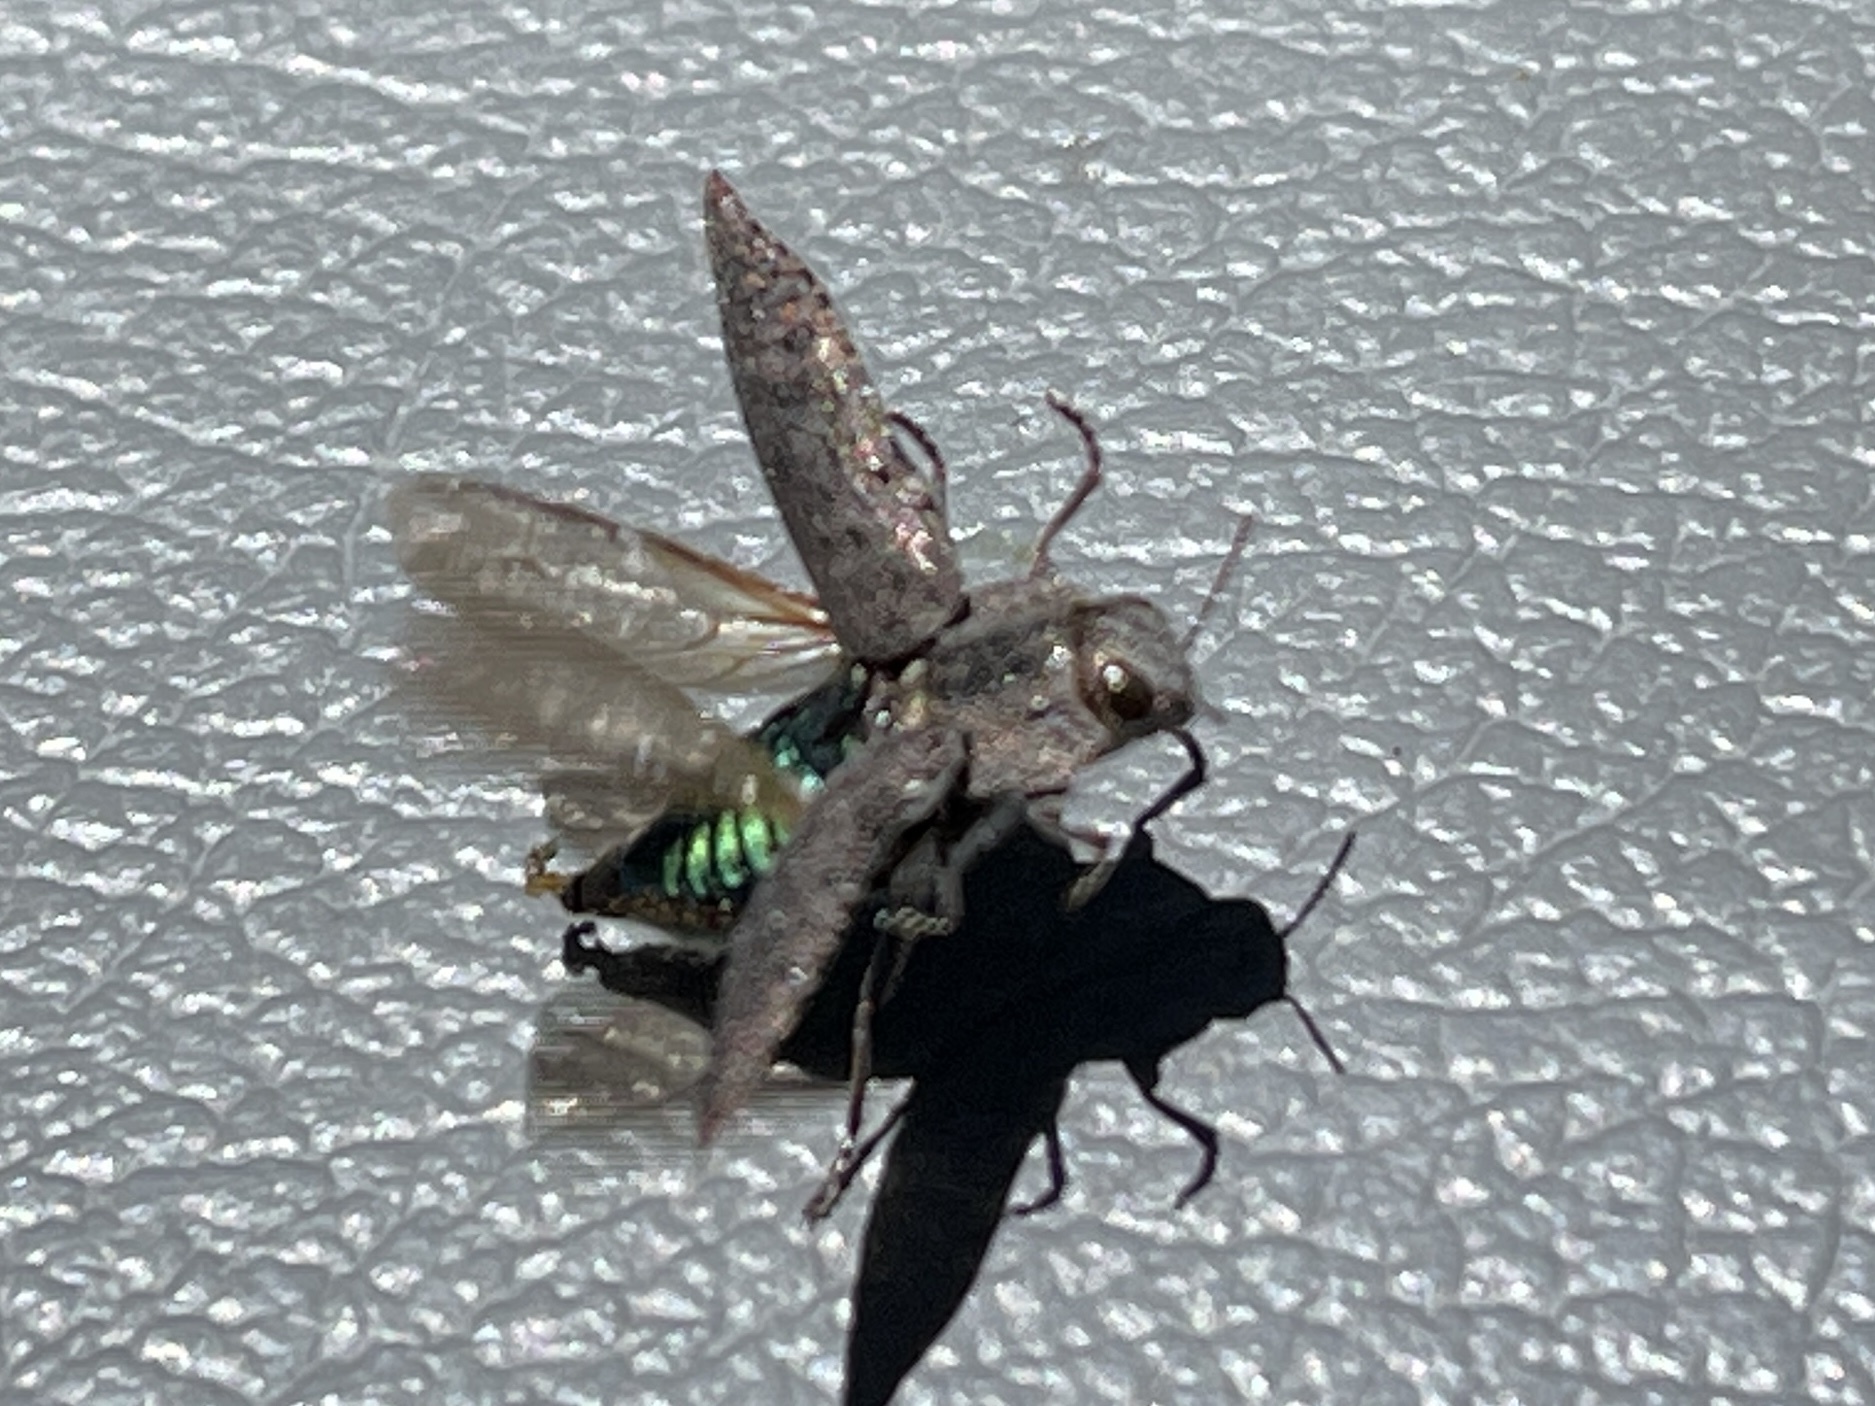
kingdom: Animalia
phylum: Arthropoda
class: Insecta
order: Coleoptera
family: Buprestidae
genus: Dicerca
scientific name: Dicerca hornii
